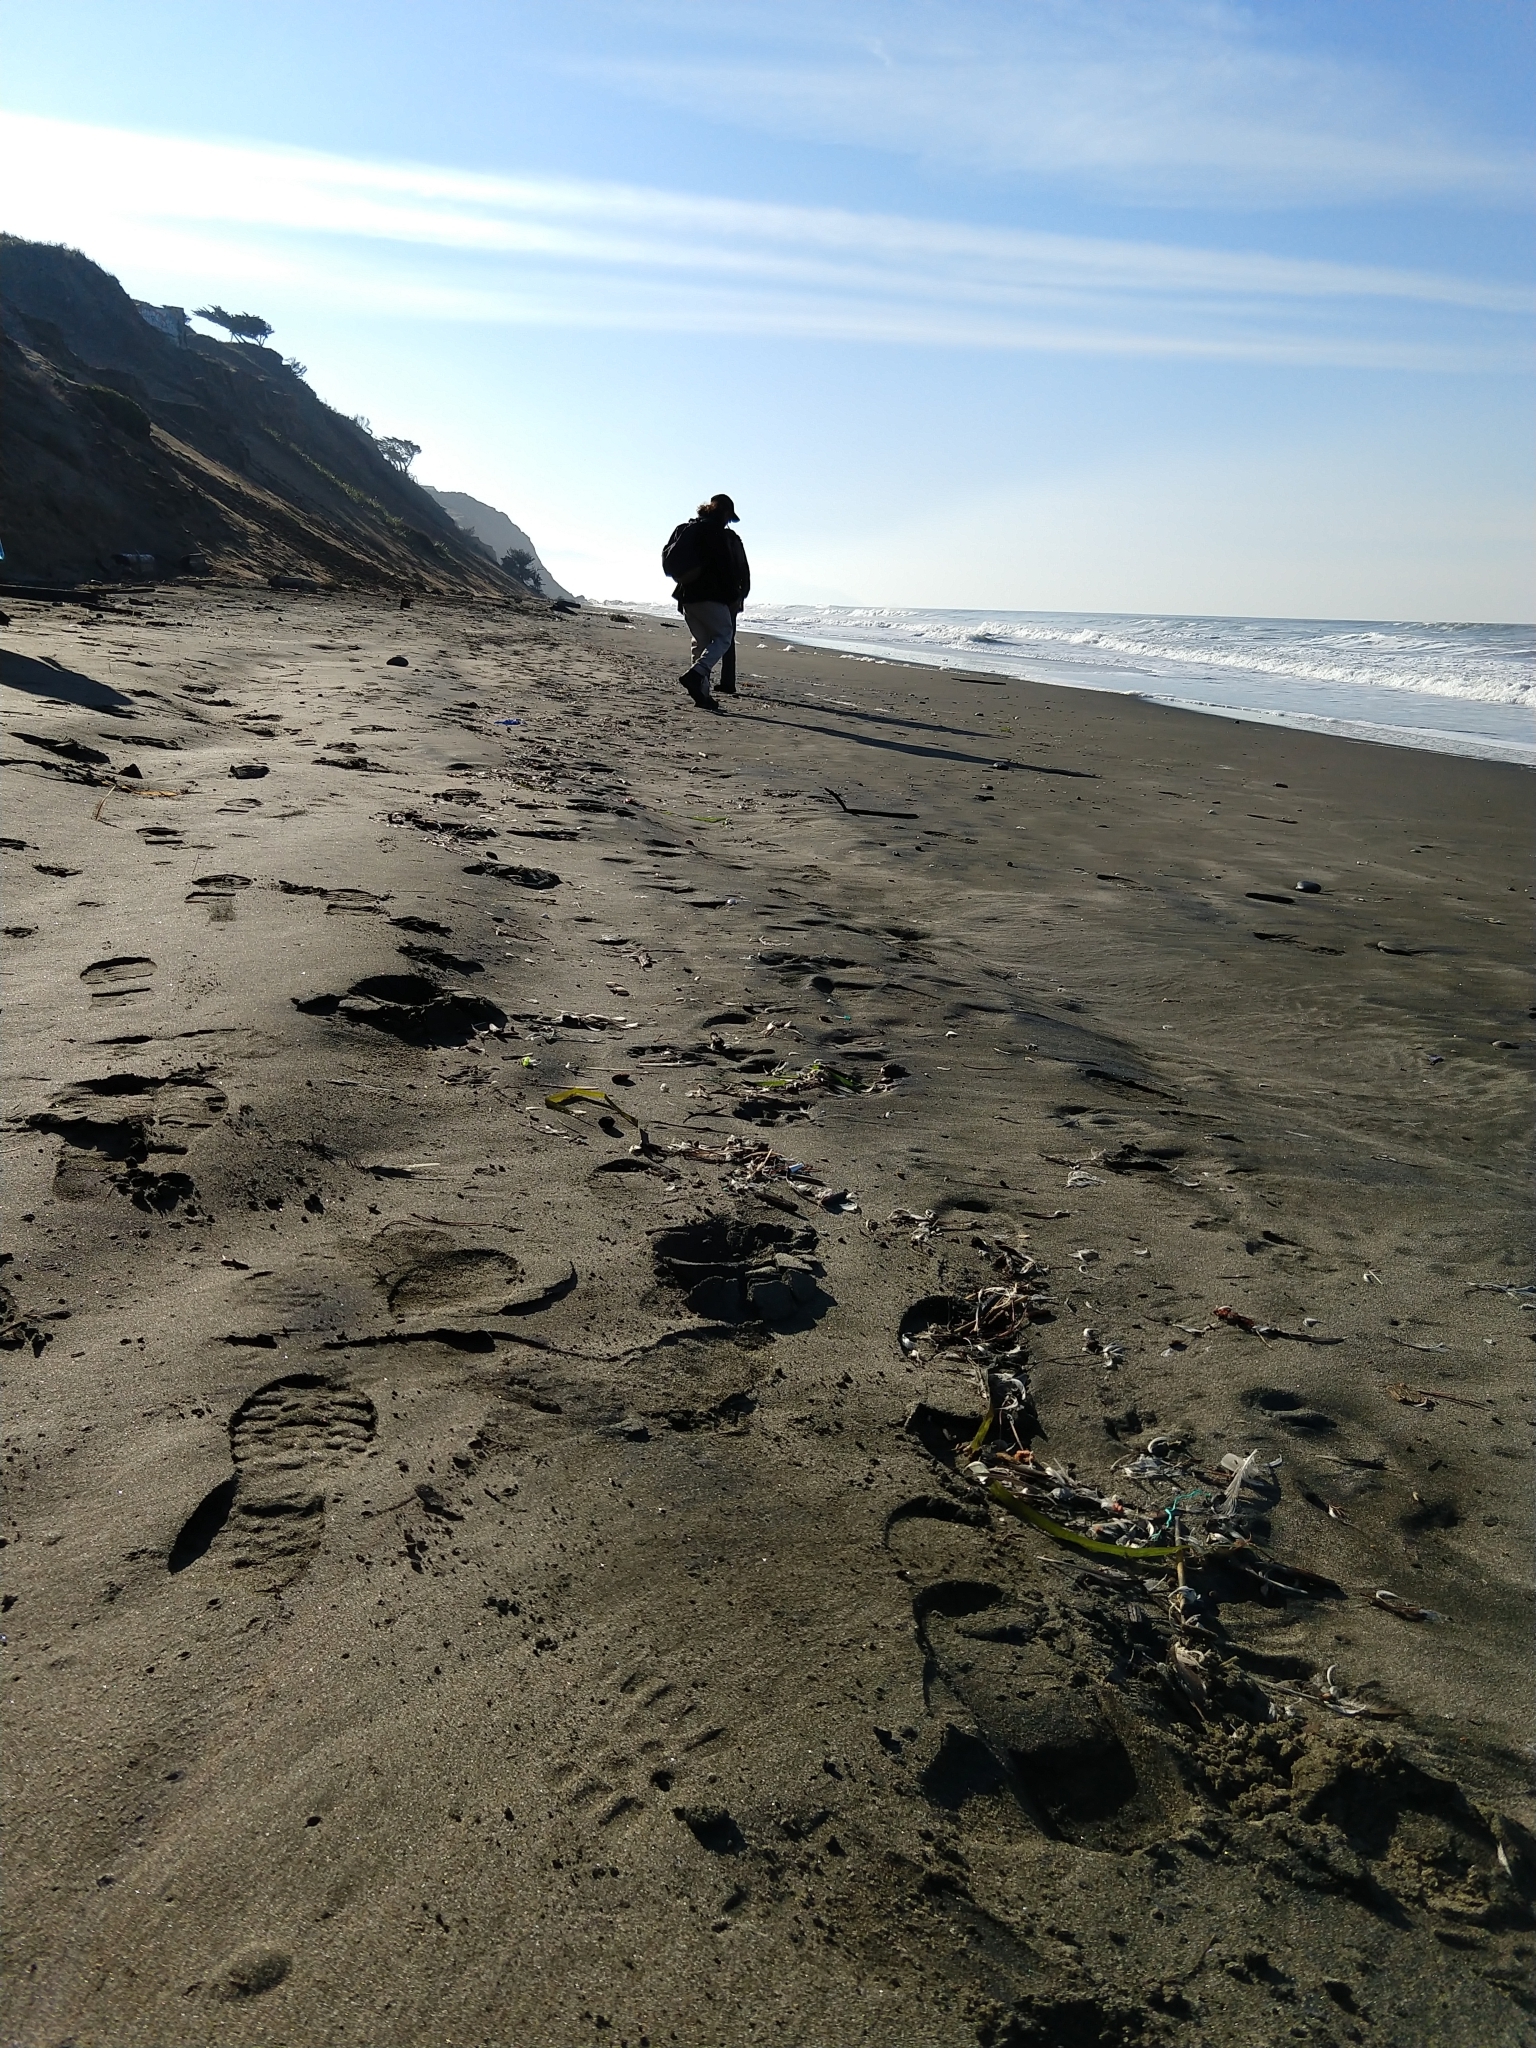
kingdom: Plantae
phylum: Tracheophyta
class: Liliopsida
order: Alismatales
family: Zosteraceae
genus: Zostera
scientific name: Zostera marina
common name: Eelgrass
